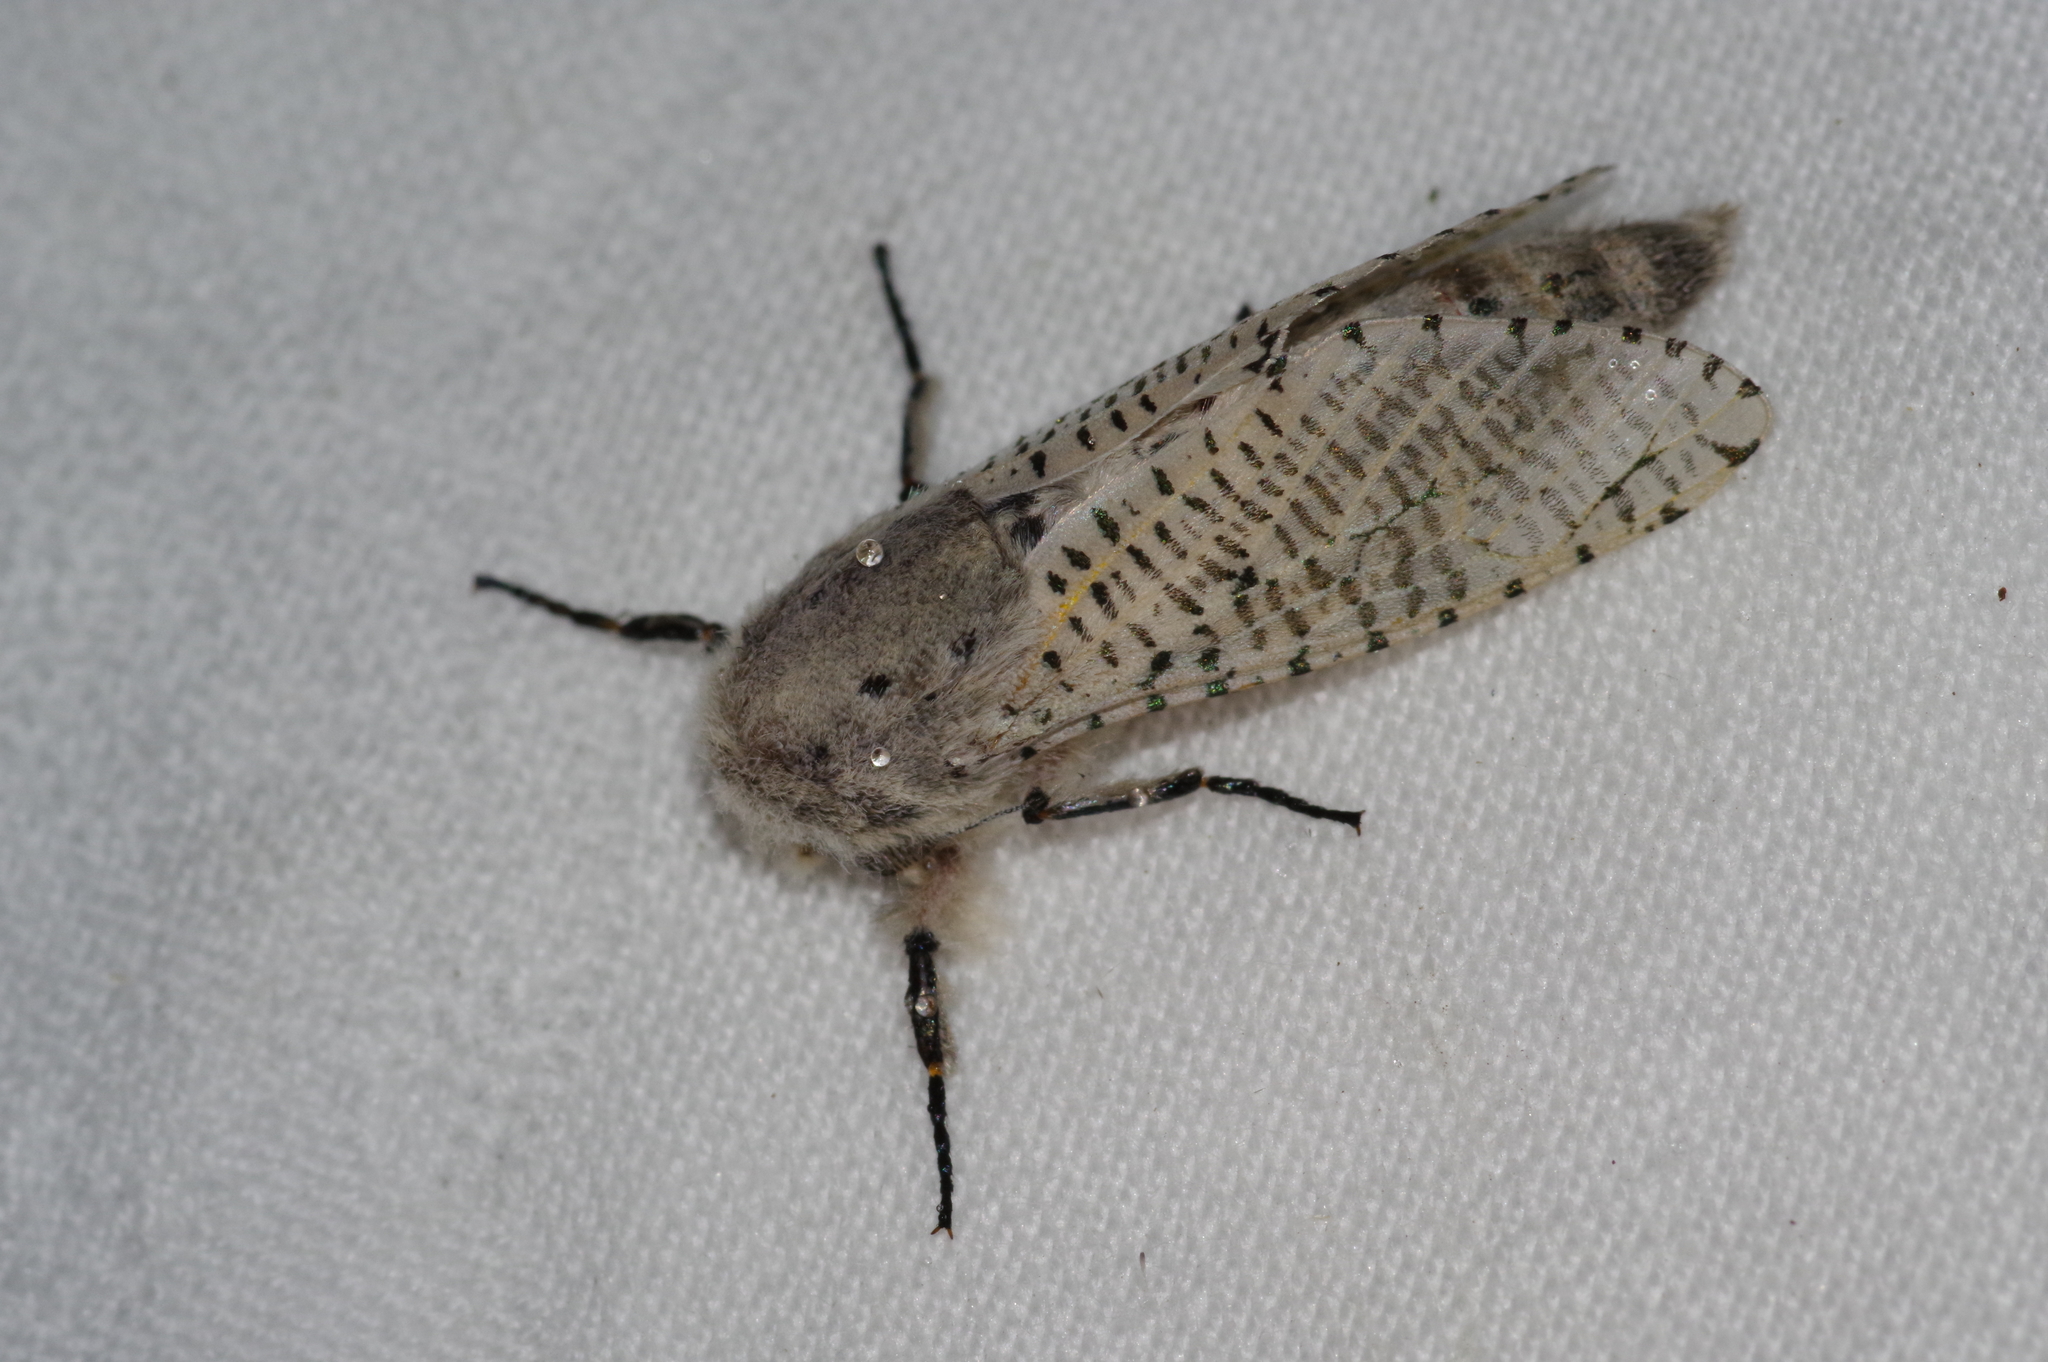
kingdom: Animalia
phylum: Arthropoda
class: Insecta
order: Lepidoptera
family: Cossidae
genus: Orientozeuzera
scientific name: Orientozeuzera caudata
